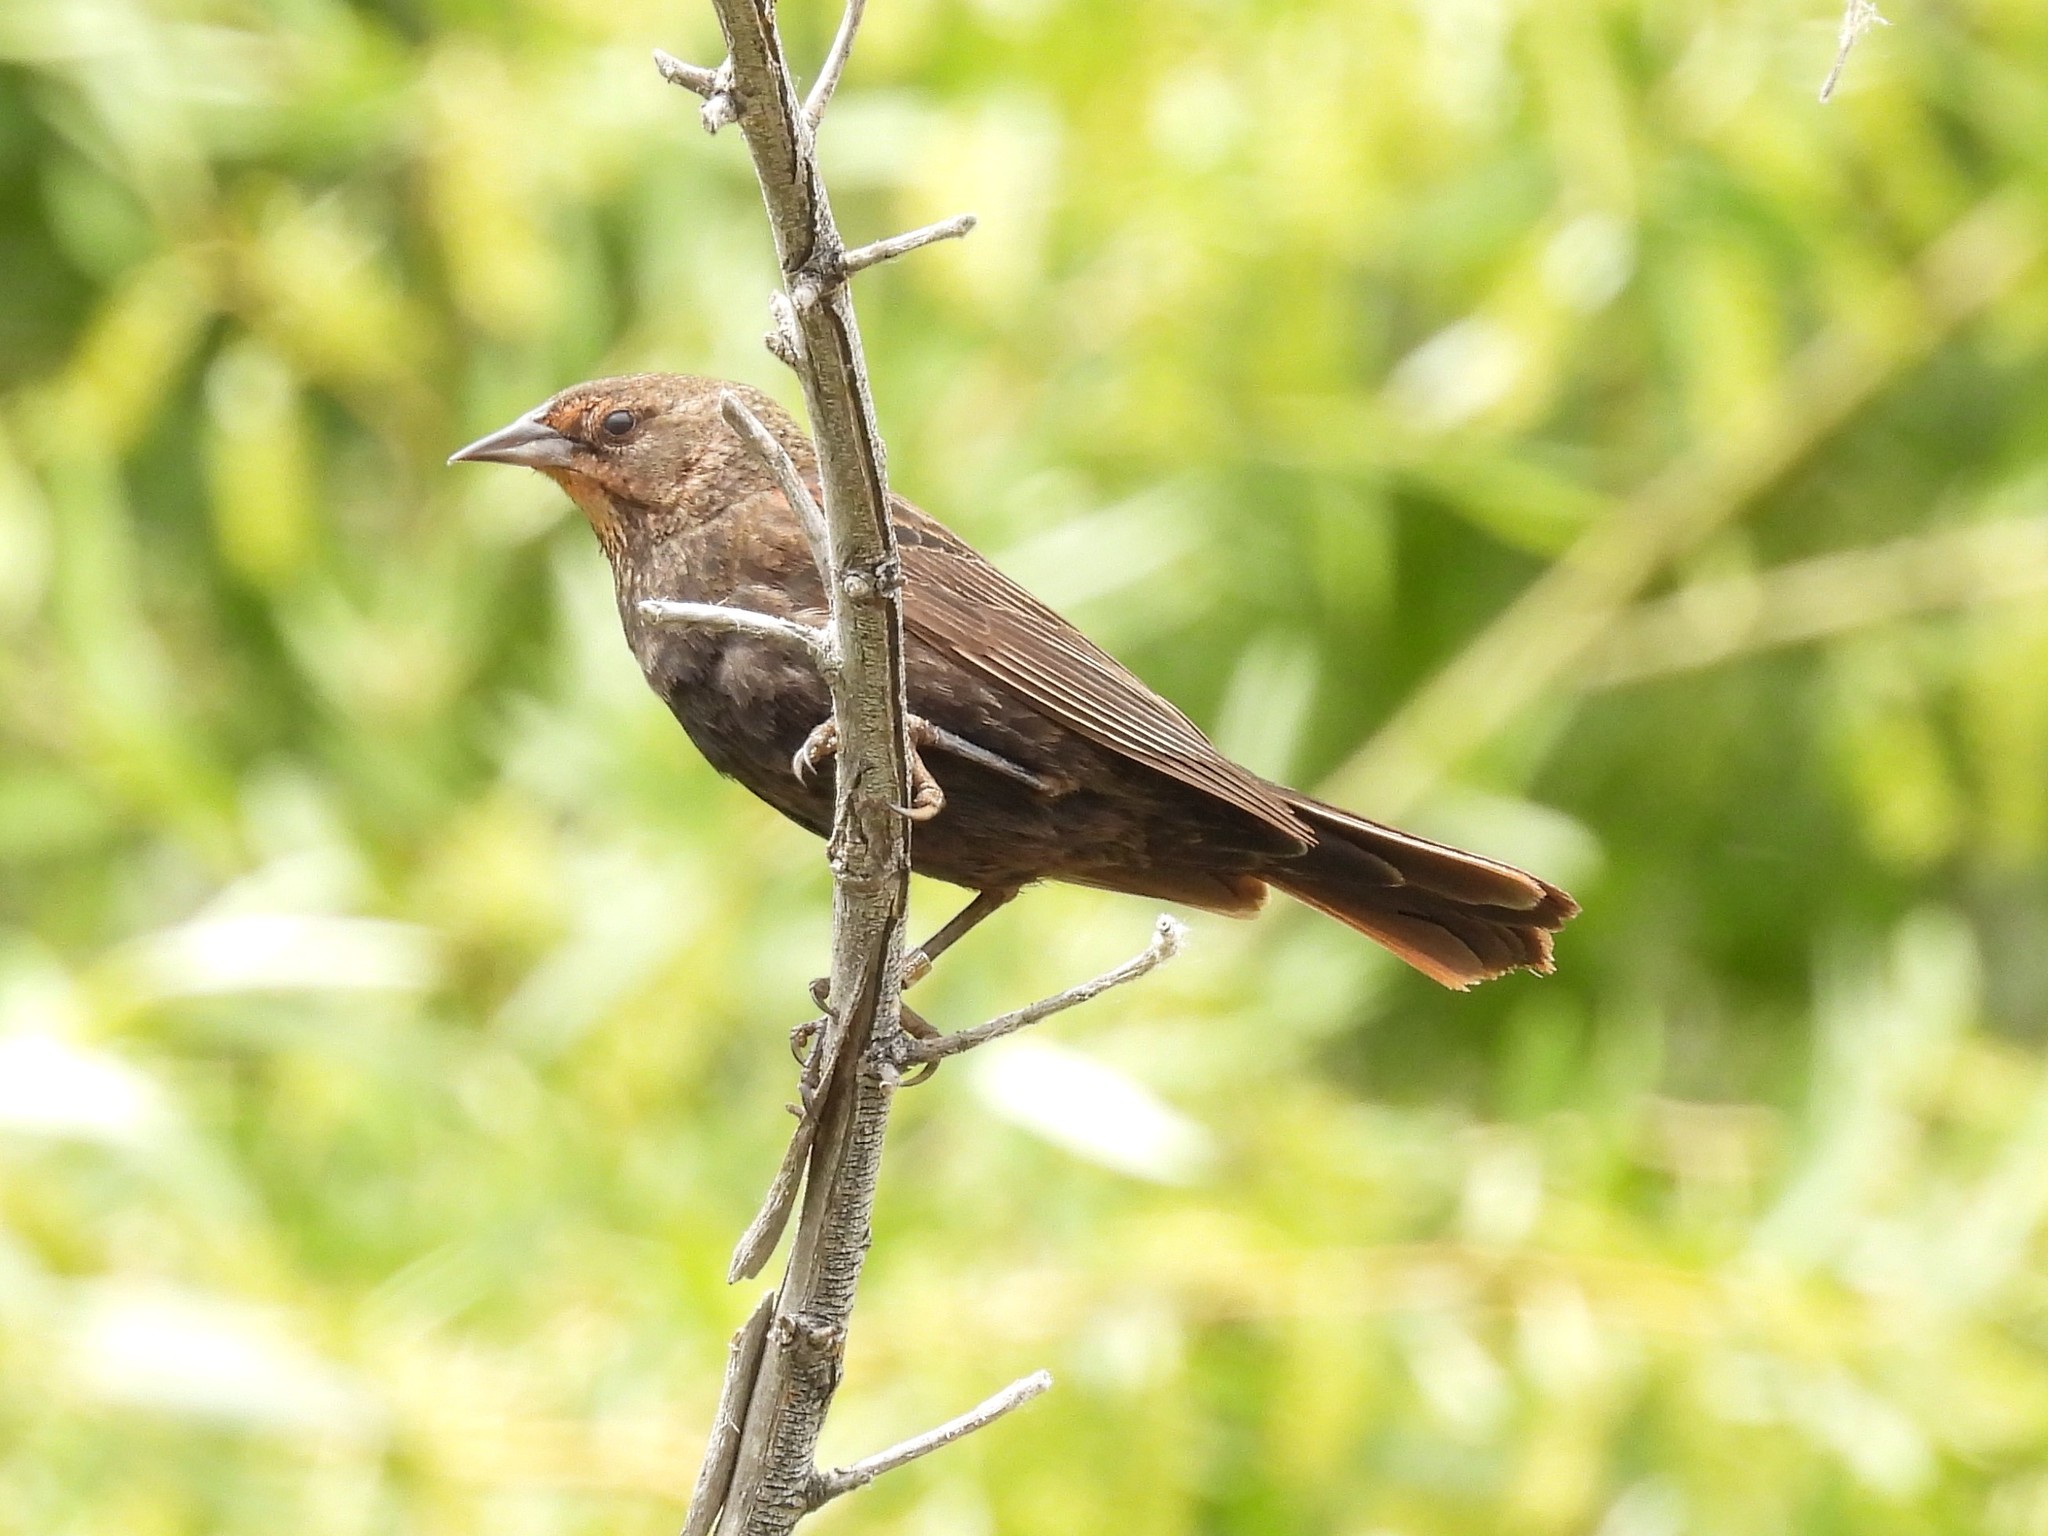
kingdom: Animalia
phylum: Chordata
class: Aves
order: Passeriformes
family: Icteridae
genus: Molothrus
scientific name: Molothrus ater
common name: Brown-headed cowbird
